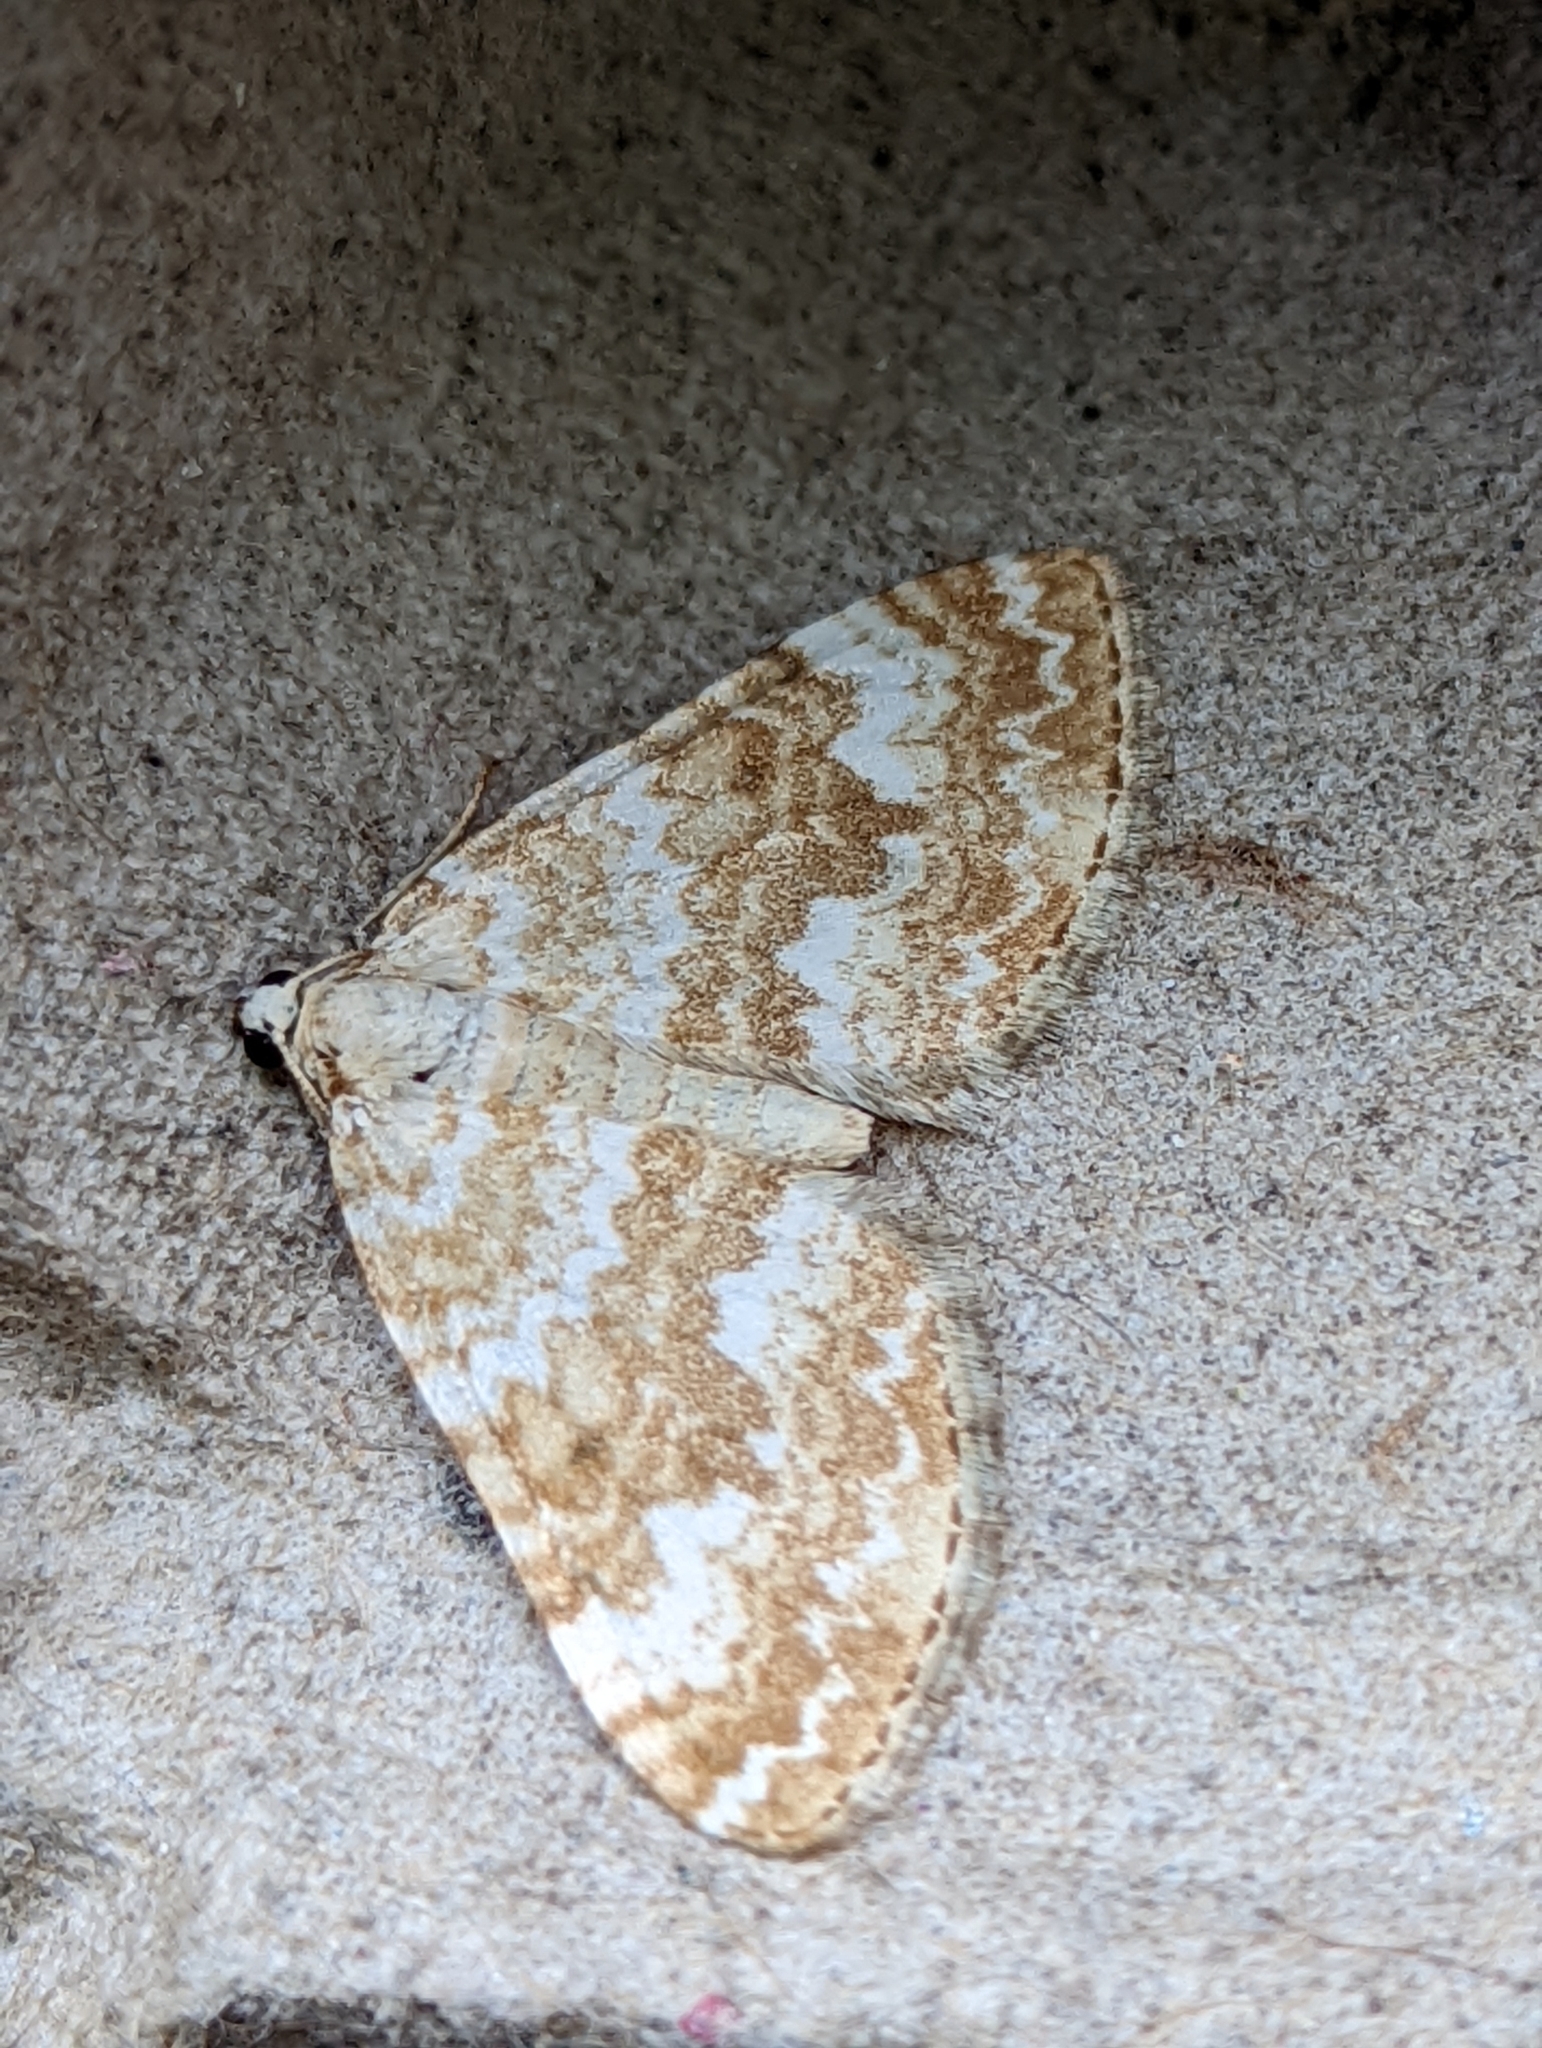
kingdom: Animalia
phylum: Arthropoda
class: Insecta
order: Lepidoptera
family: Geometridae
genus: Perizoma
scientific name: Perizoma flavofasciata
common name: Sandy carpet
